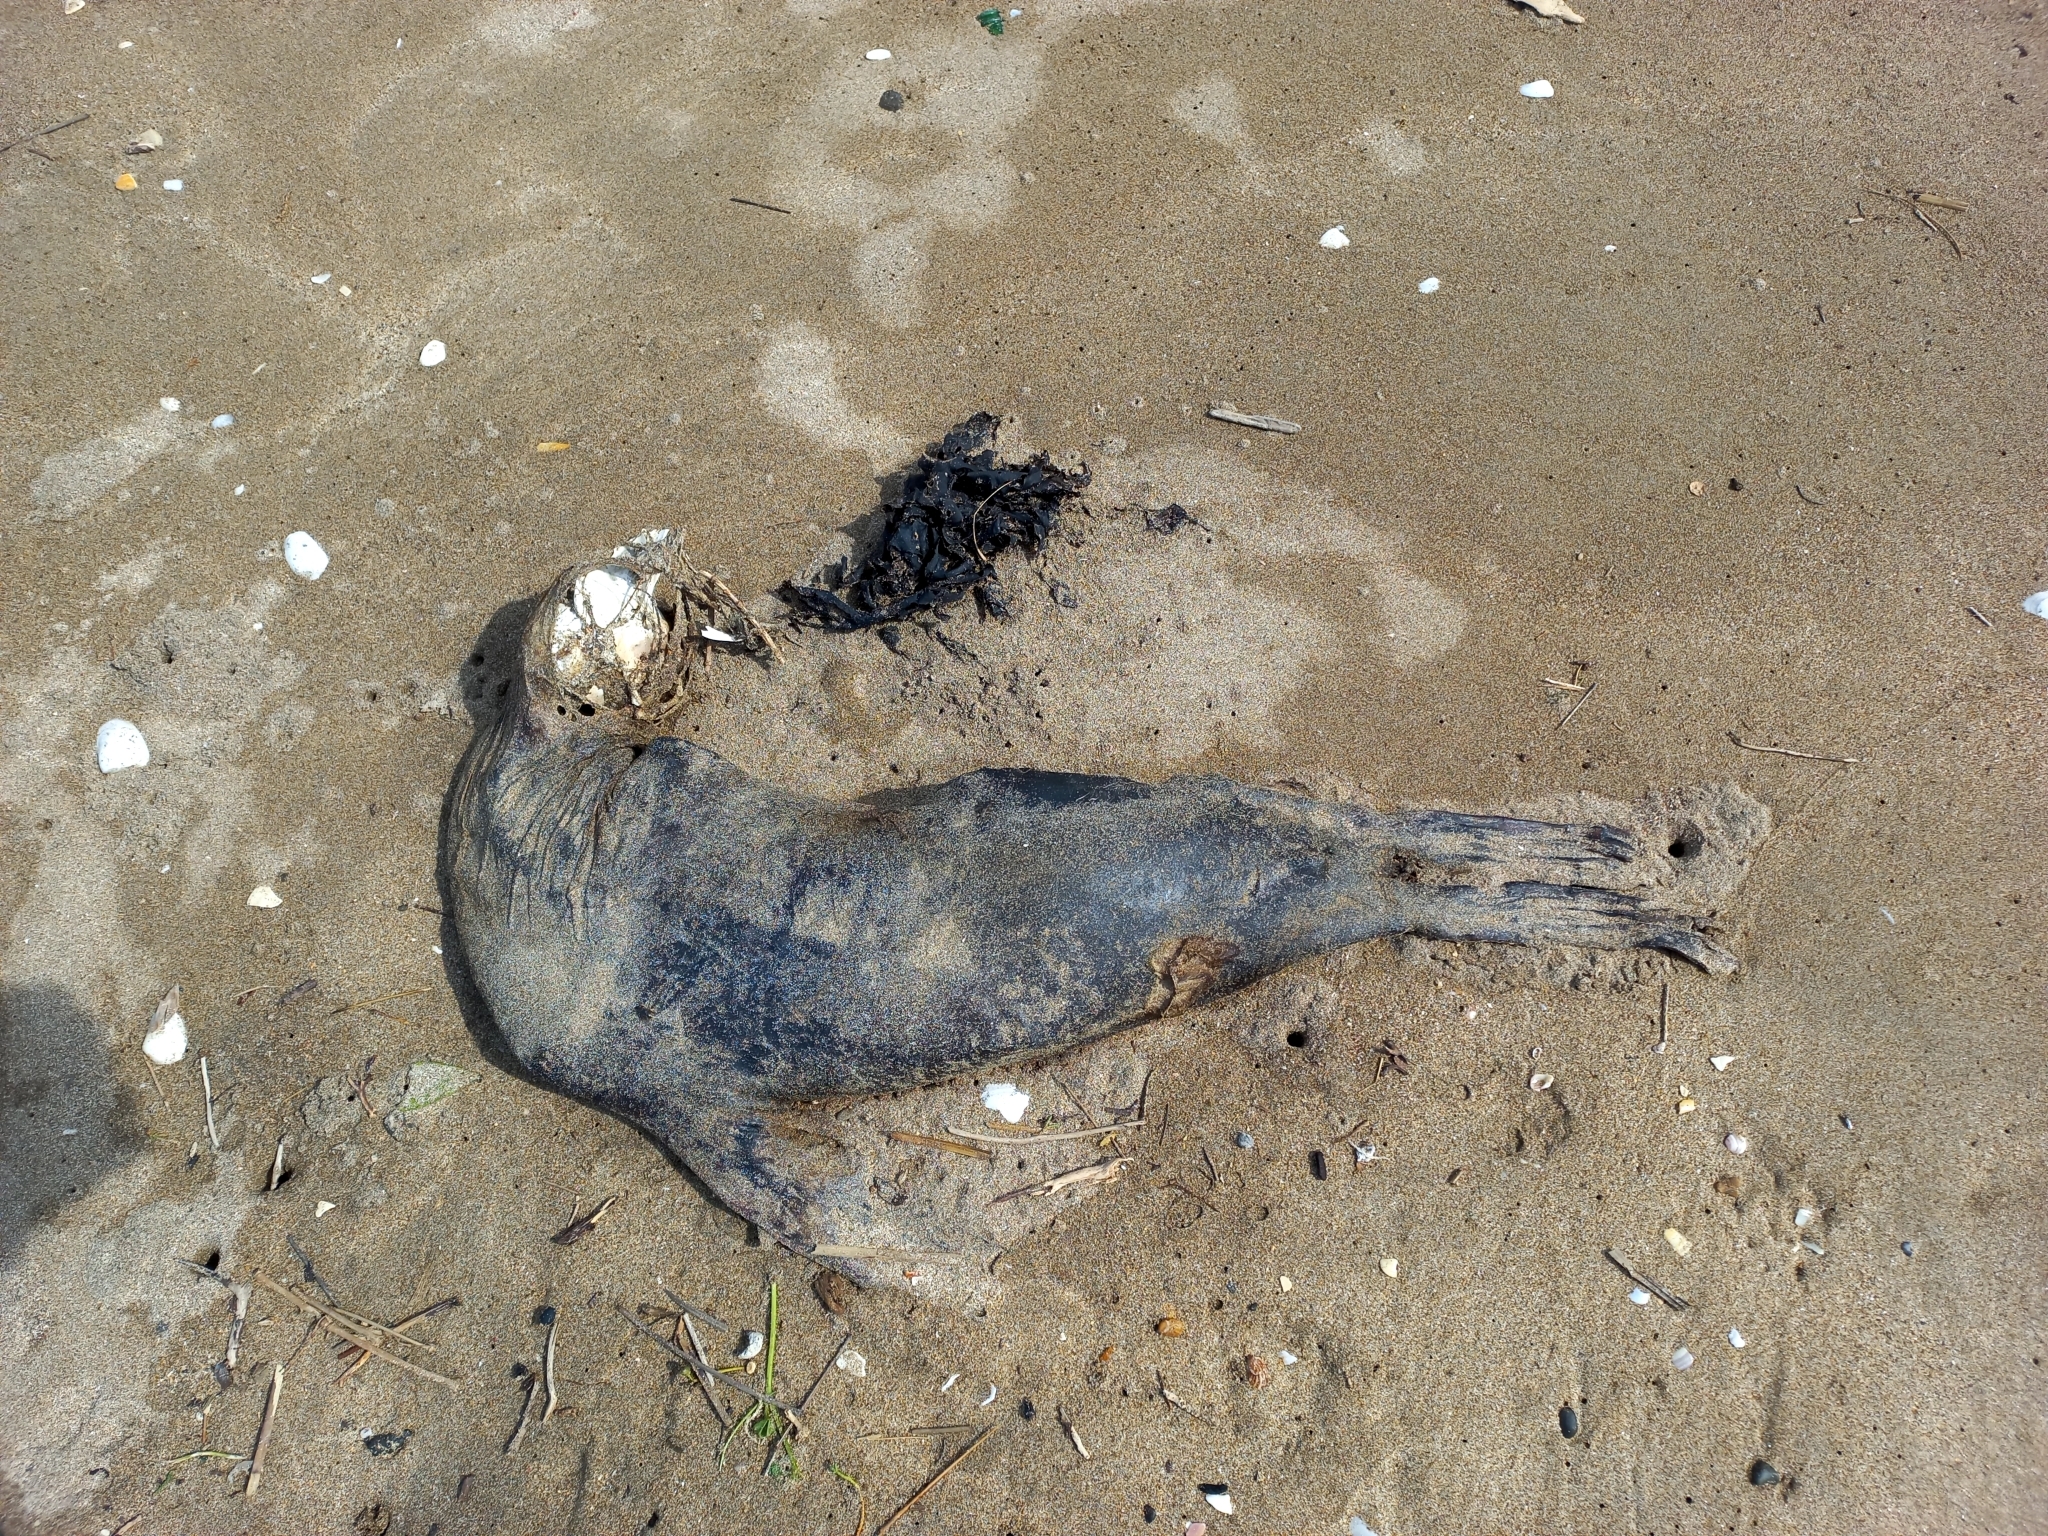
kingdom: Animalia
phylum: Chordata
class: Mammalia
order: Carnivora
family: Otariidae
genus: Arctocephalus
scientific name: Arctocephalus forsteri
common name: New zealand fur seal
